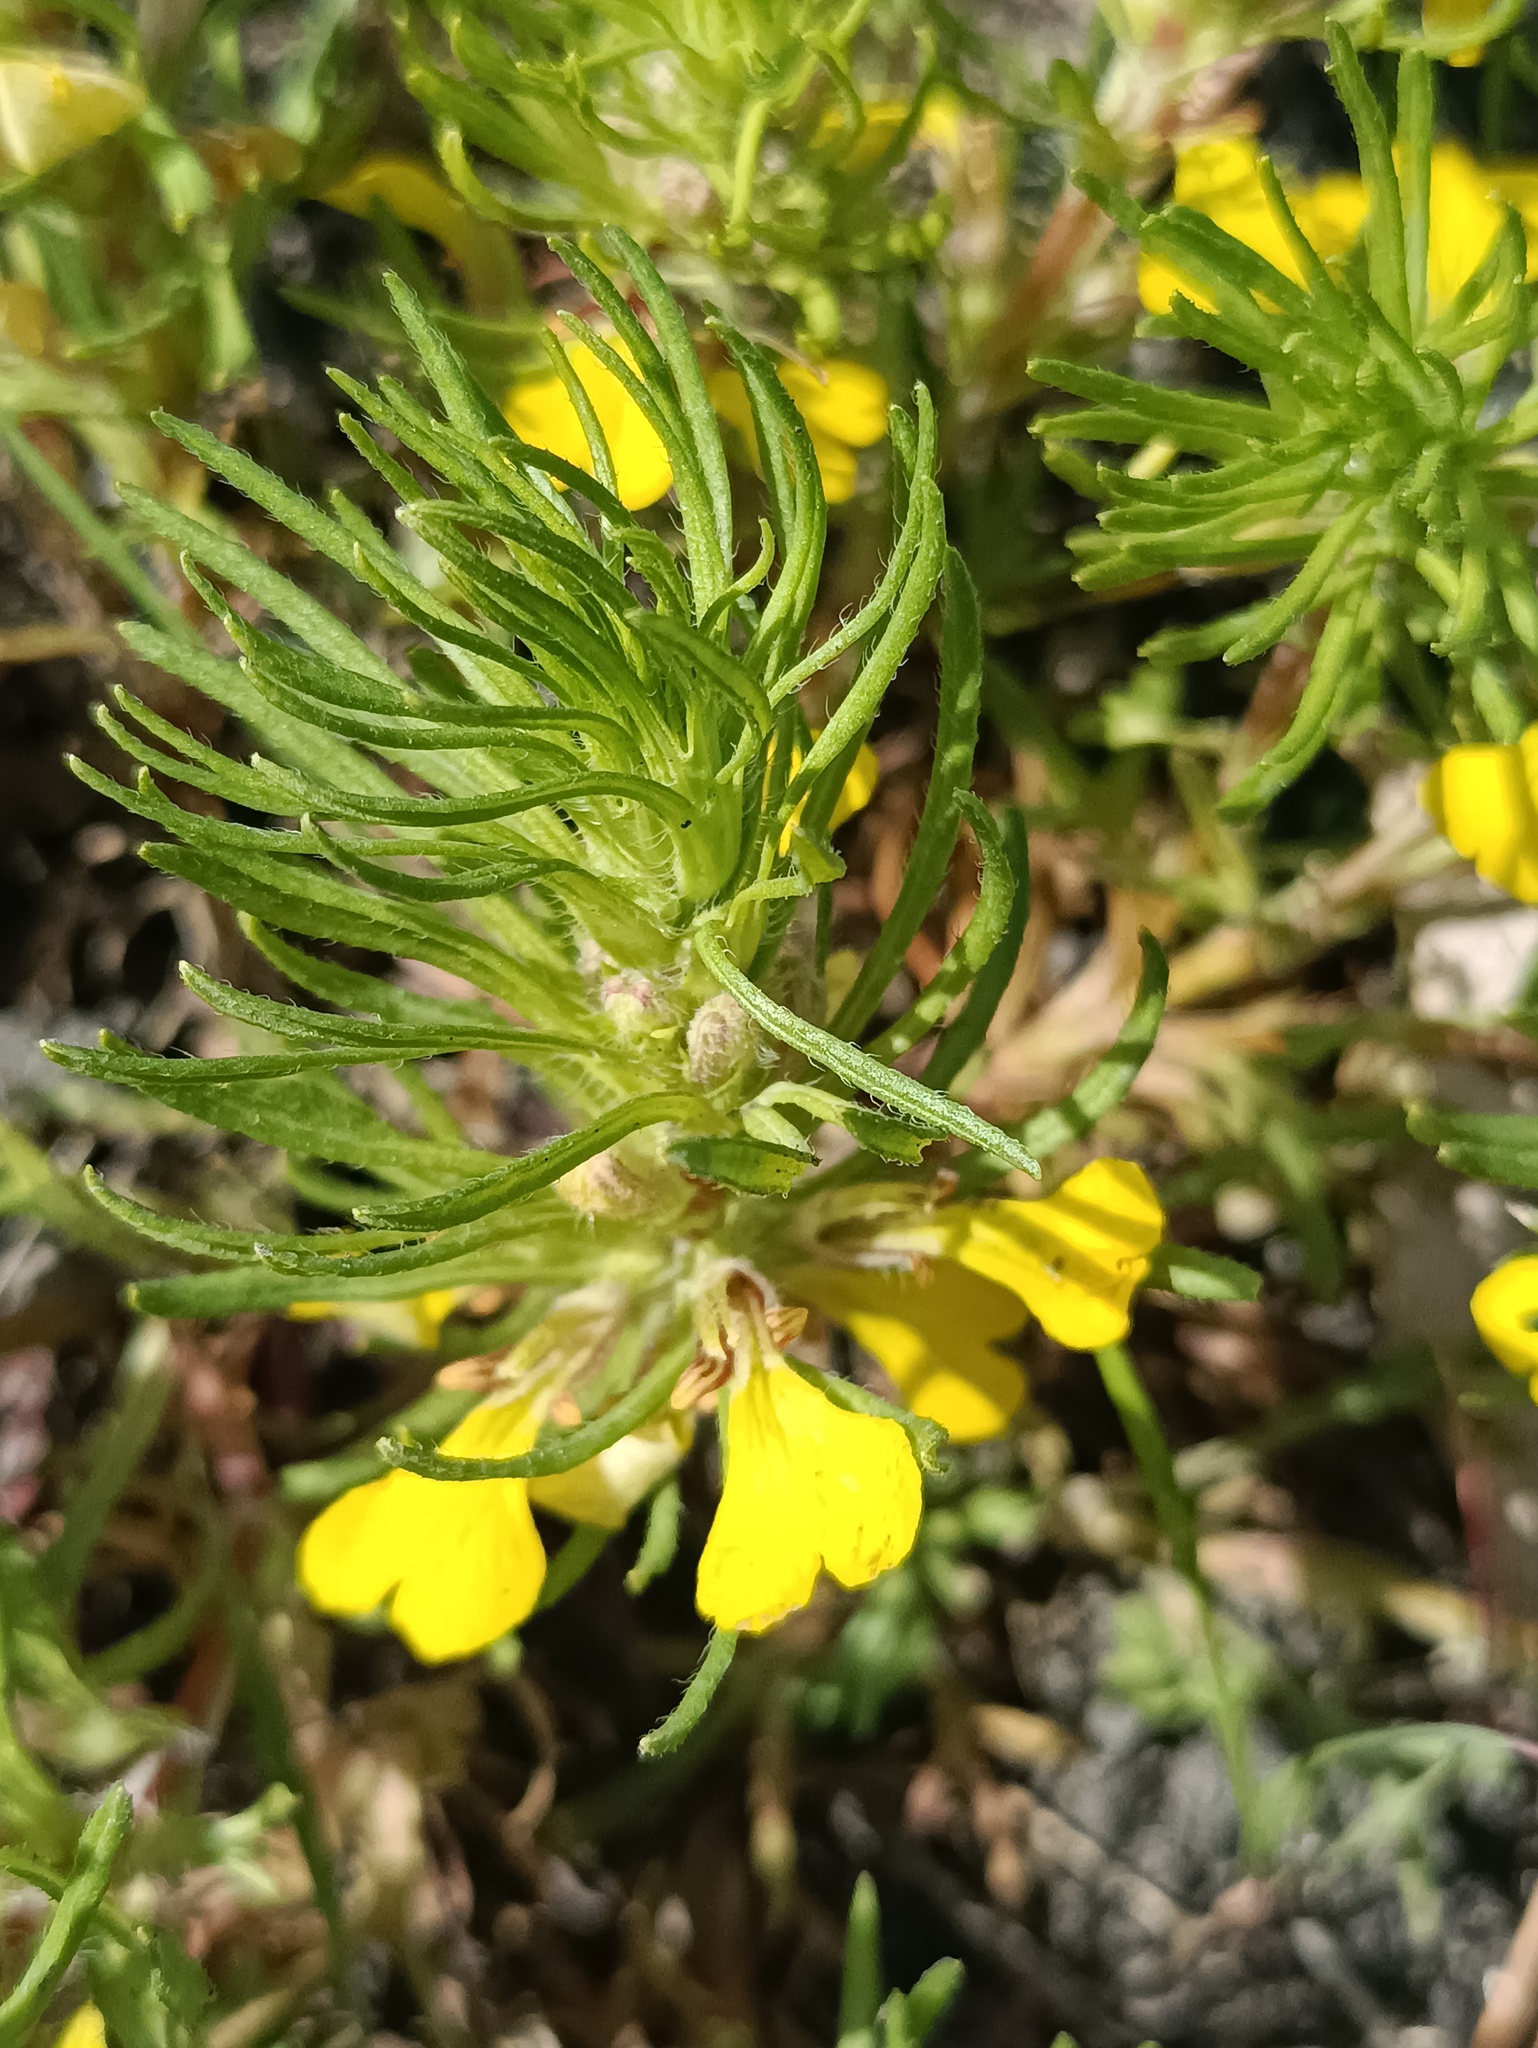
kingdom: Plantae
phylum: Tracheophyta
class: Magnoliopsida
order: Lamiales
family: Lamiaceae
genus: Ajuga
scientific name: Ajuga chamaepitys
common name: Ground-pine
